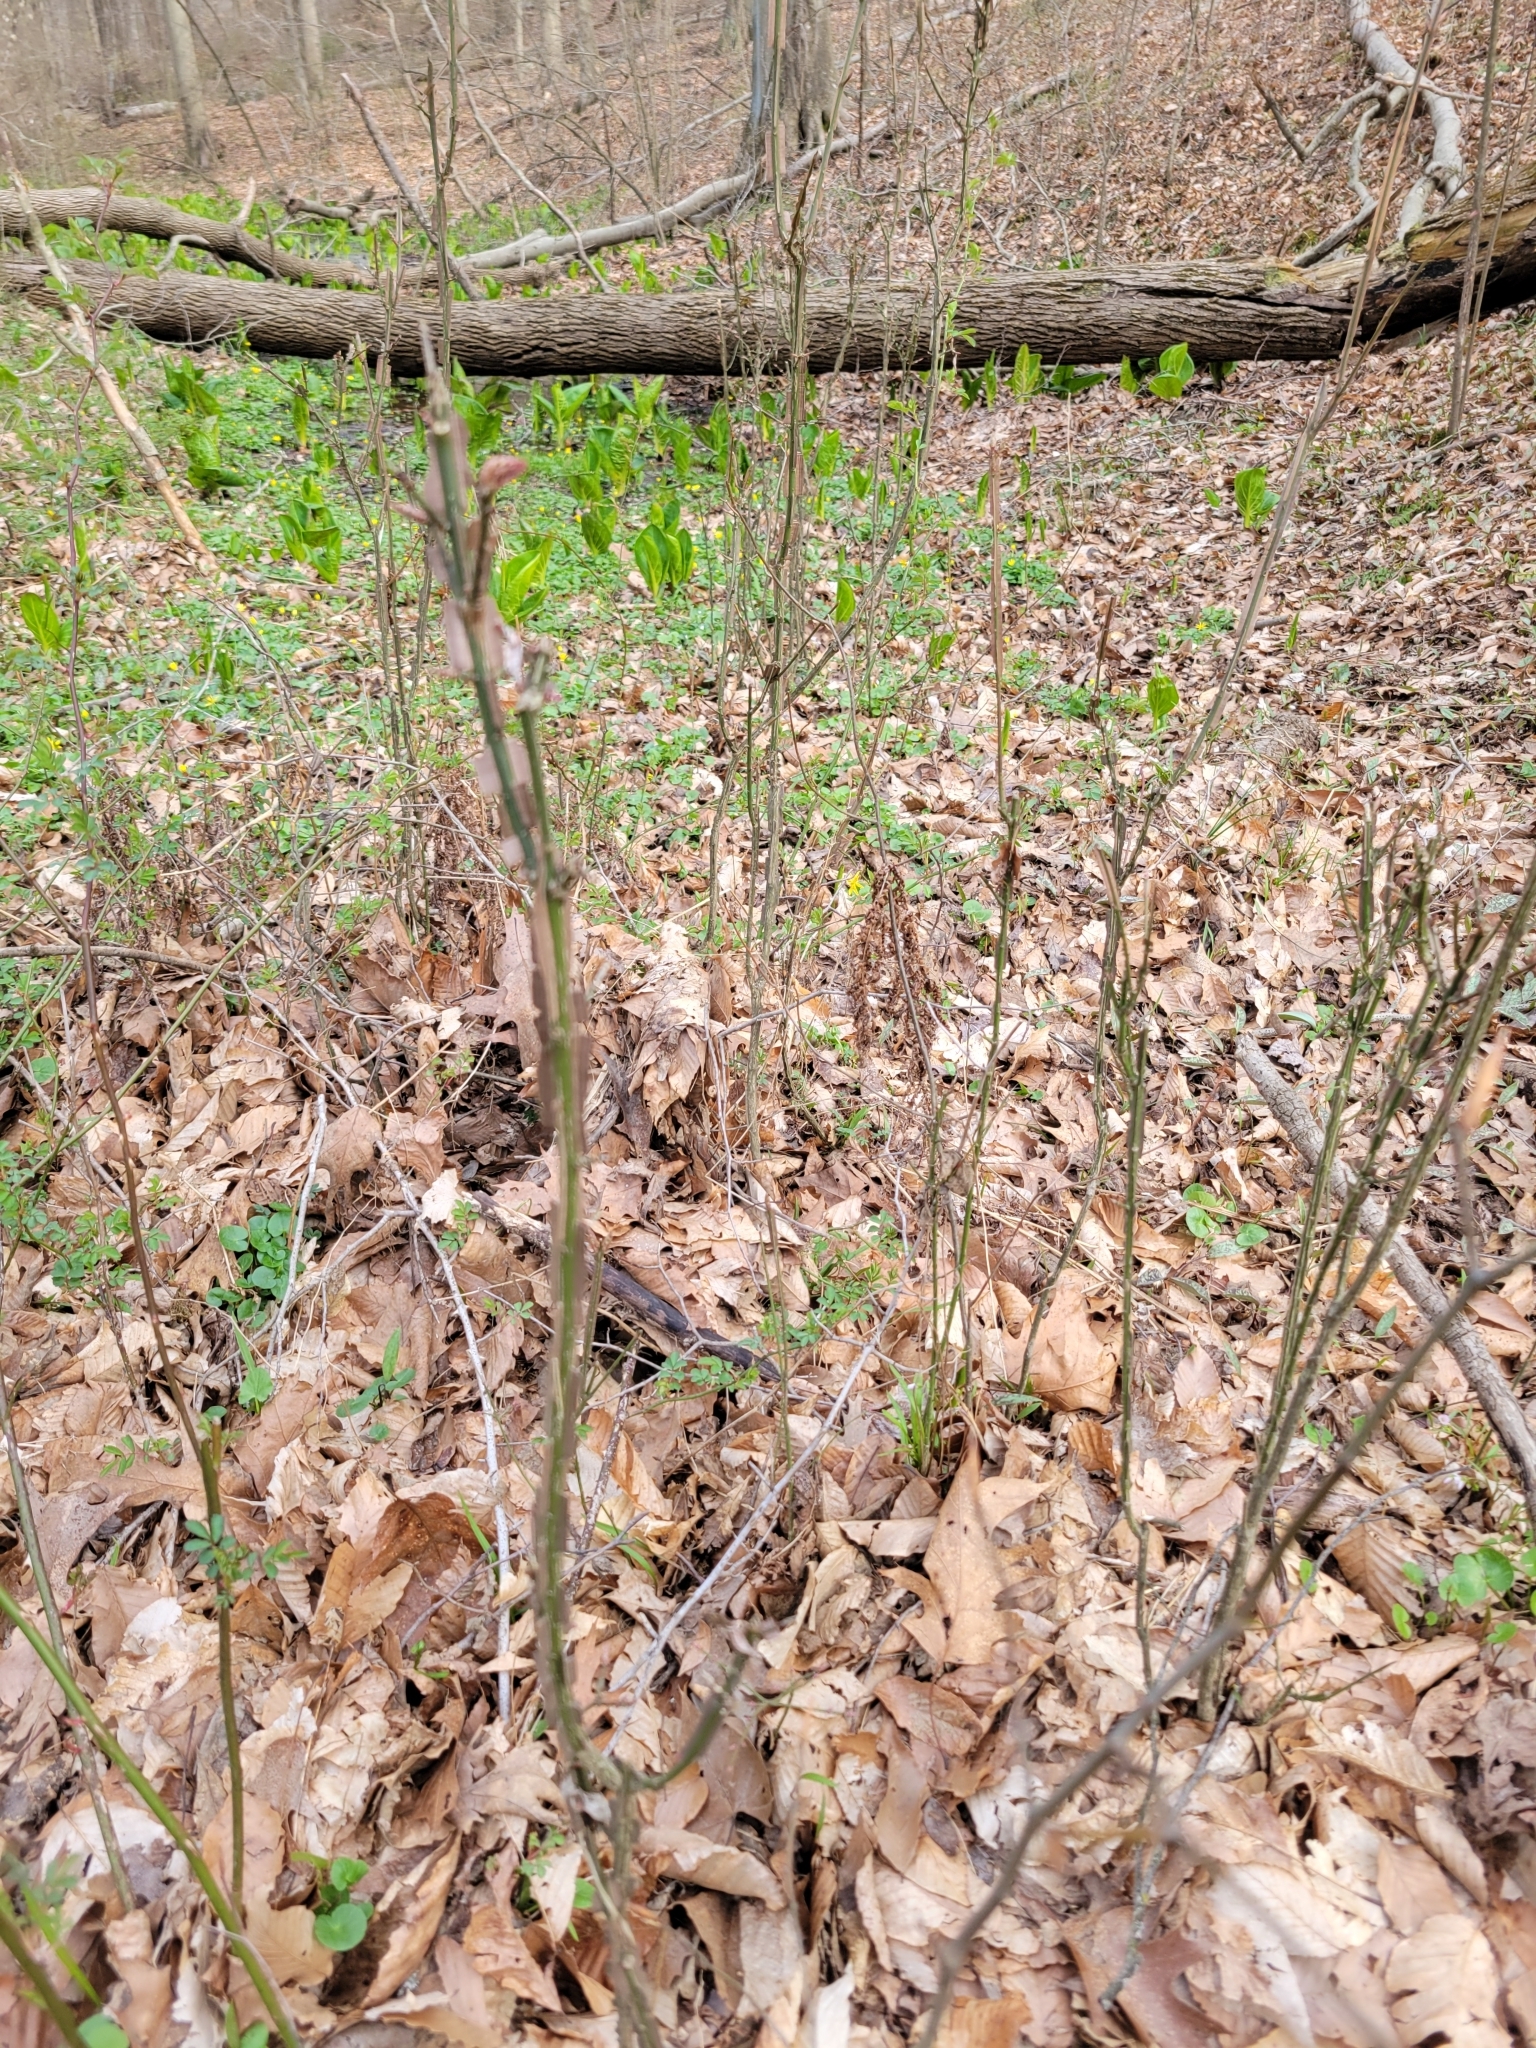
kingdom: Plantae
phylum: Tracheophyta
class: Magnoliopsida
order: Celastrales
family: Celastraceae
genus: Euonymus
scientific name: Euonymus alatus
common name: Winged euonymus
